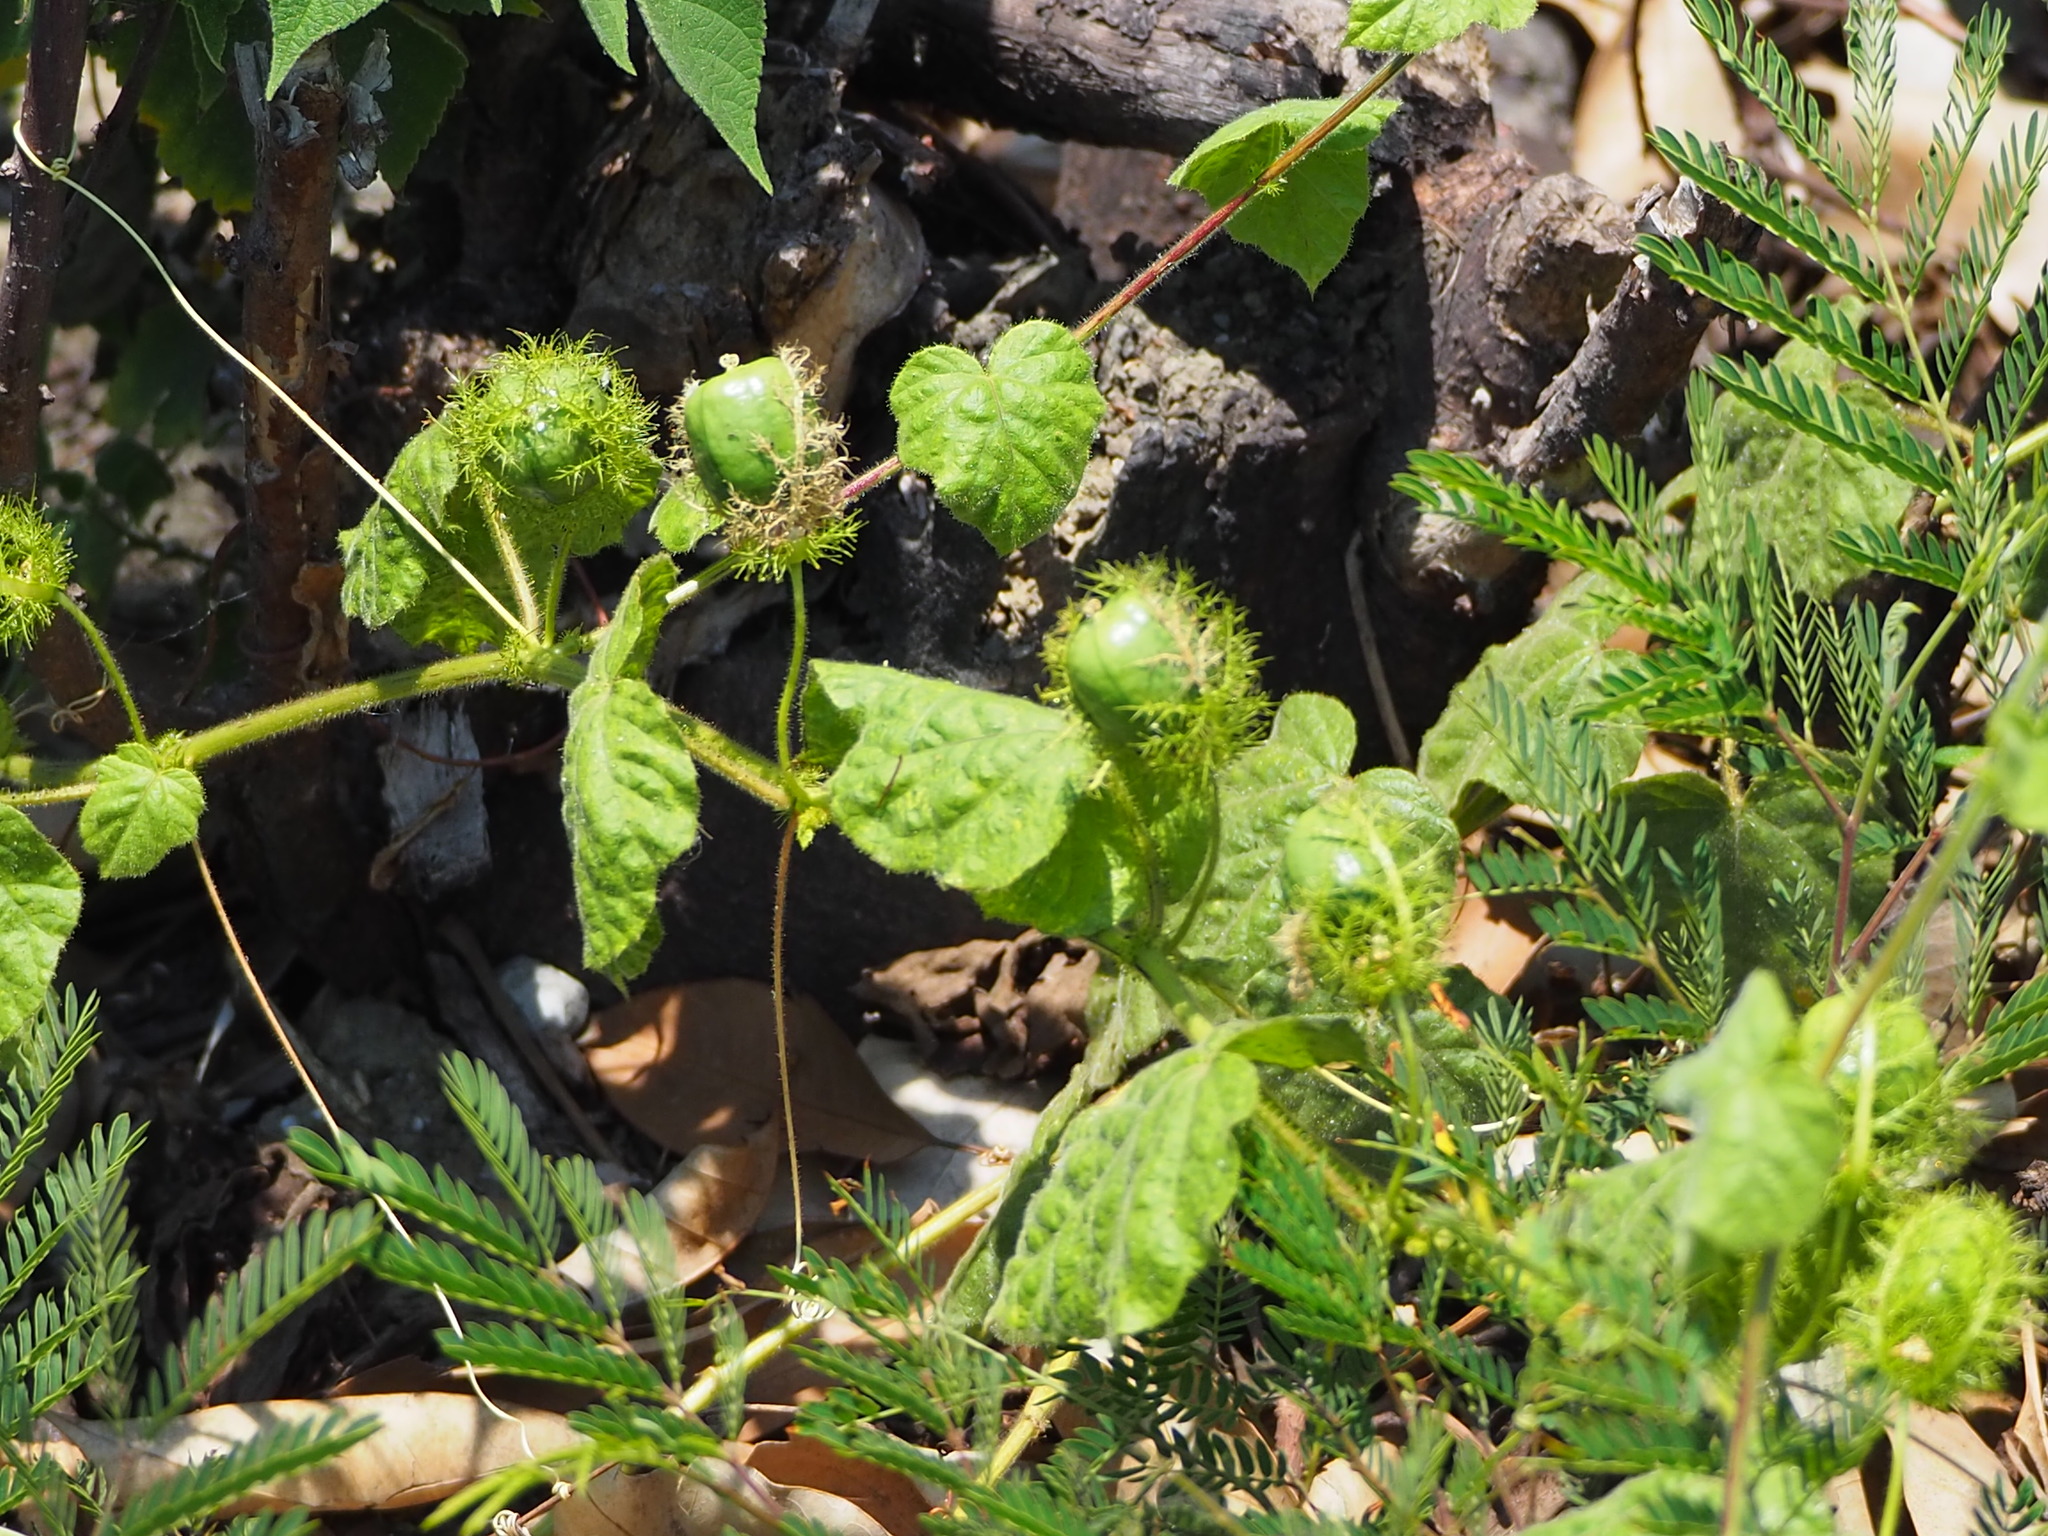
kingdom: Plantae
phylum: Tracheophyta
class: Magnoliopsida
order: Malpighiales
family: Passifloraceae
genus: Passiflora
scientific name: Passiflora vesicaria
